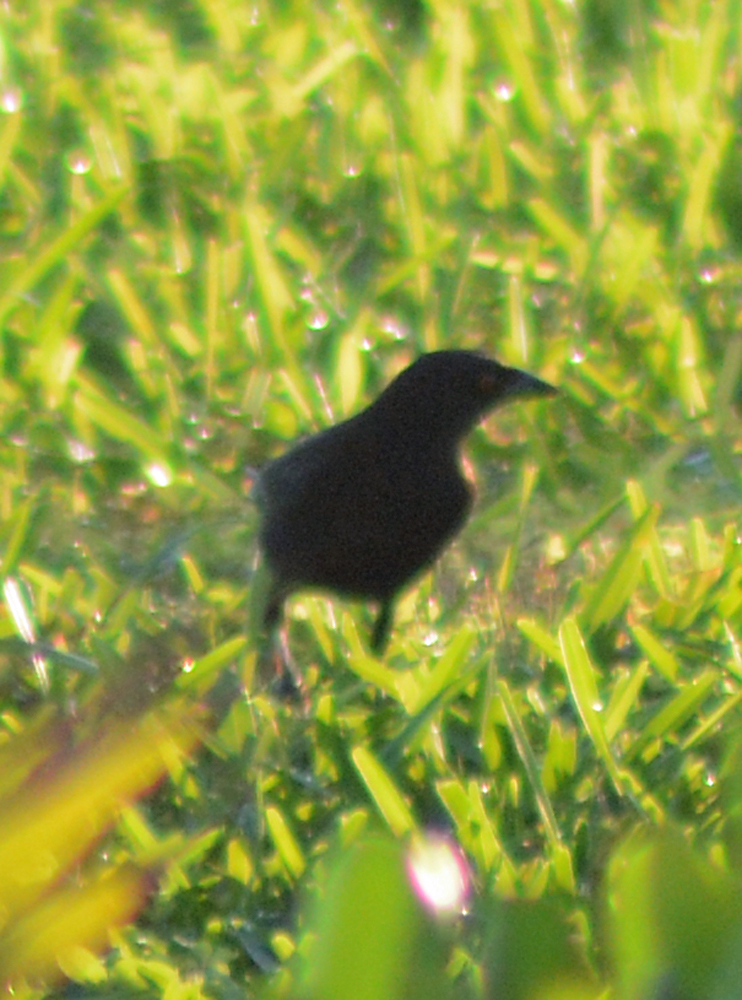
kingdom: Animalia
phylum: Chordata
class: Aves
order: Passeriformes
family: Icteridae
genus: Molothrus
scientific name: Molothrus aeneus
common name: Bronzed cowbird
